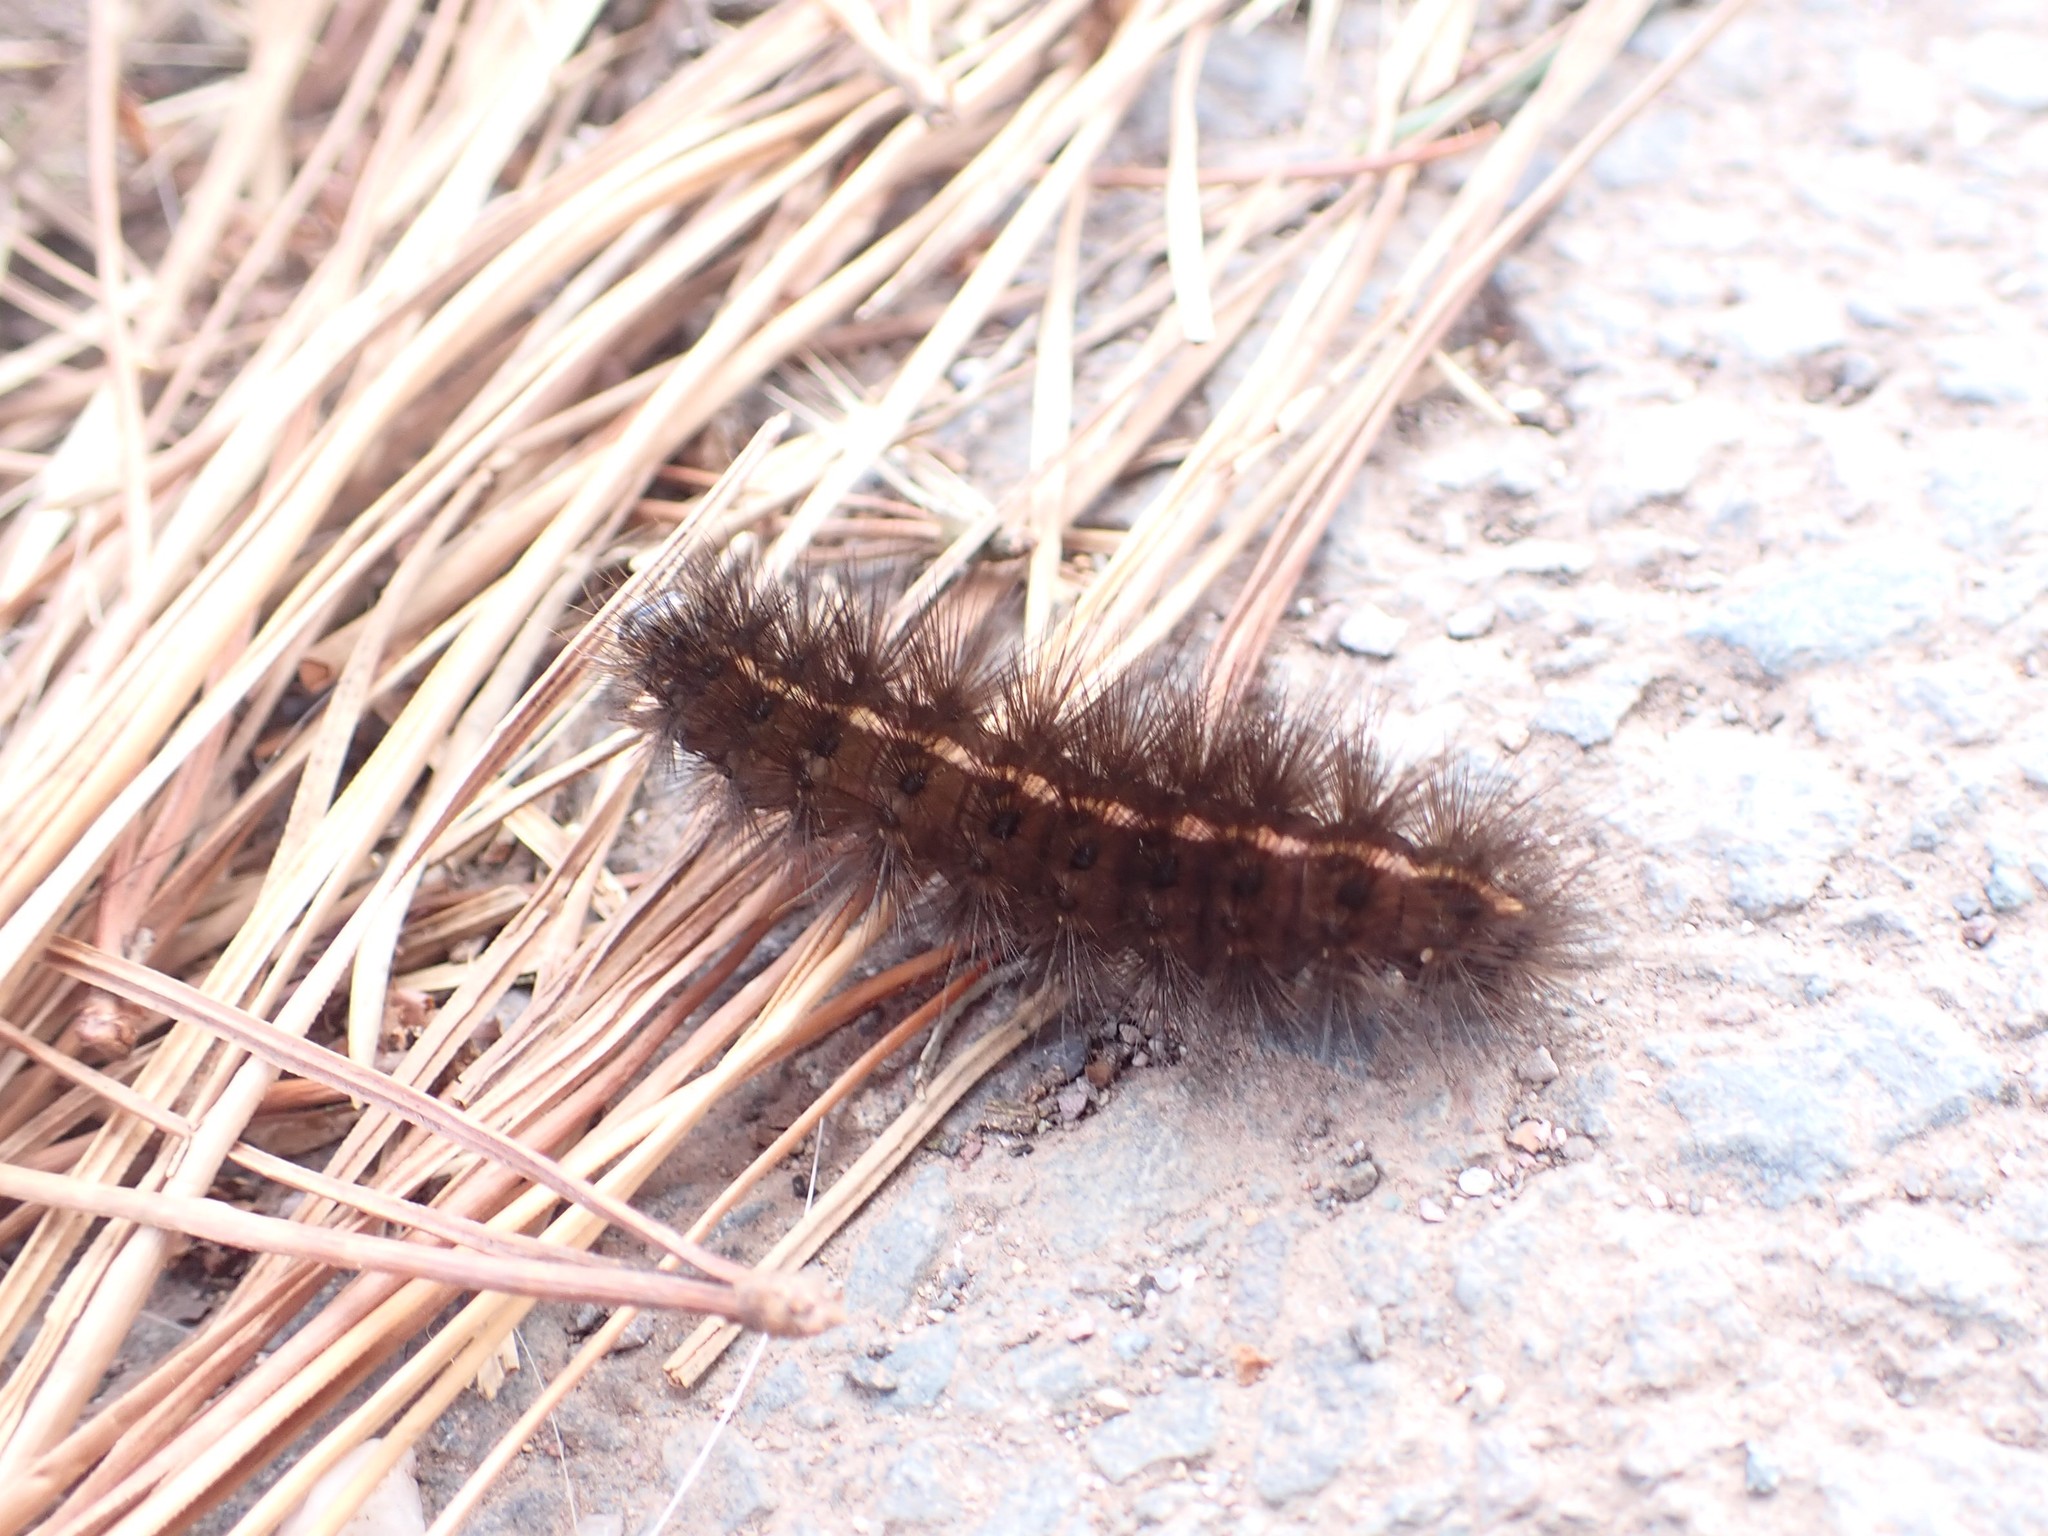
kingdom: Animalia
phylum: Arthropoda
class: Insecta
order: Lepidoptera
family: Erebidae
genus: Spilosoma
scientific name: Spilosoma lubricipeda
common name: White ermine
